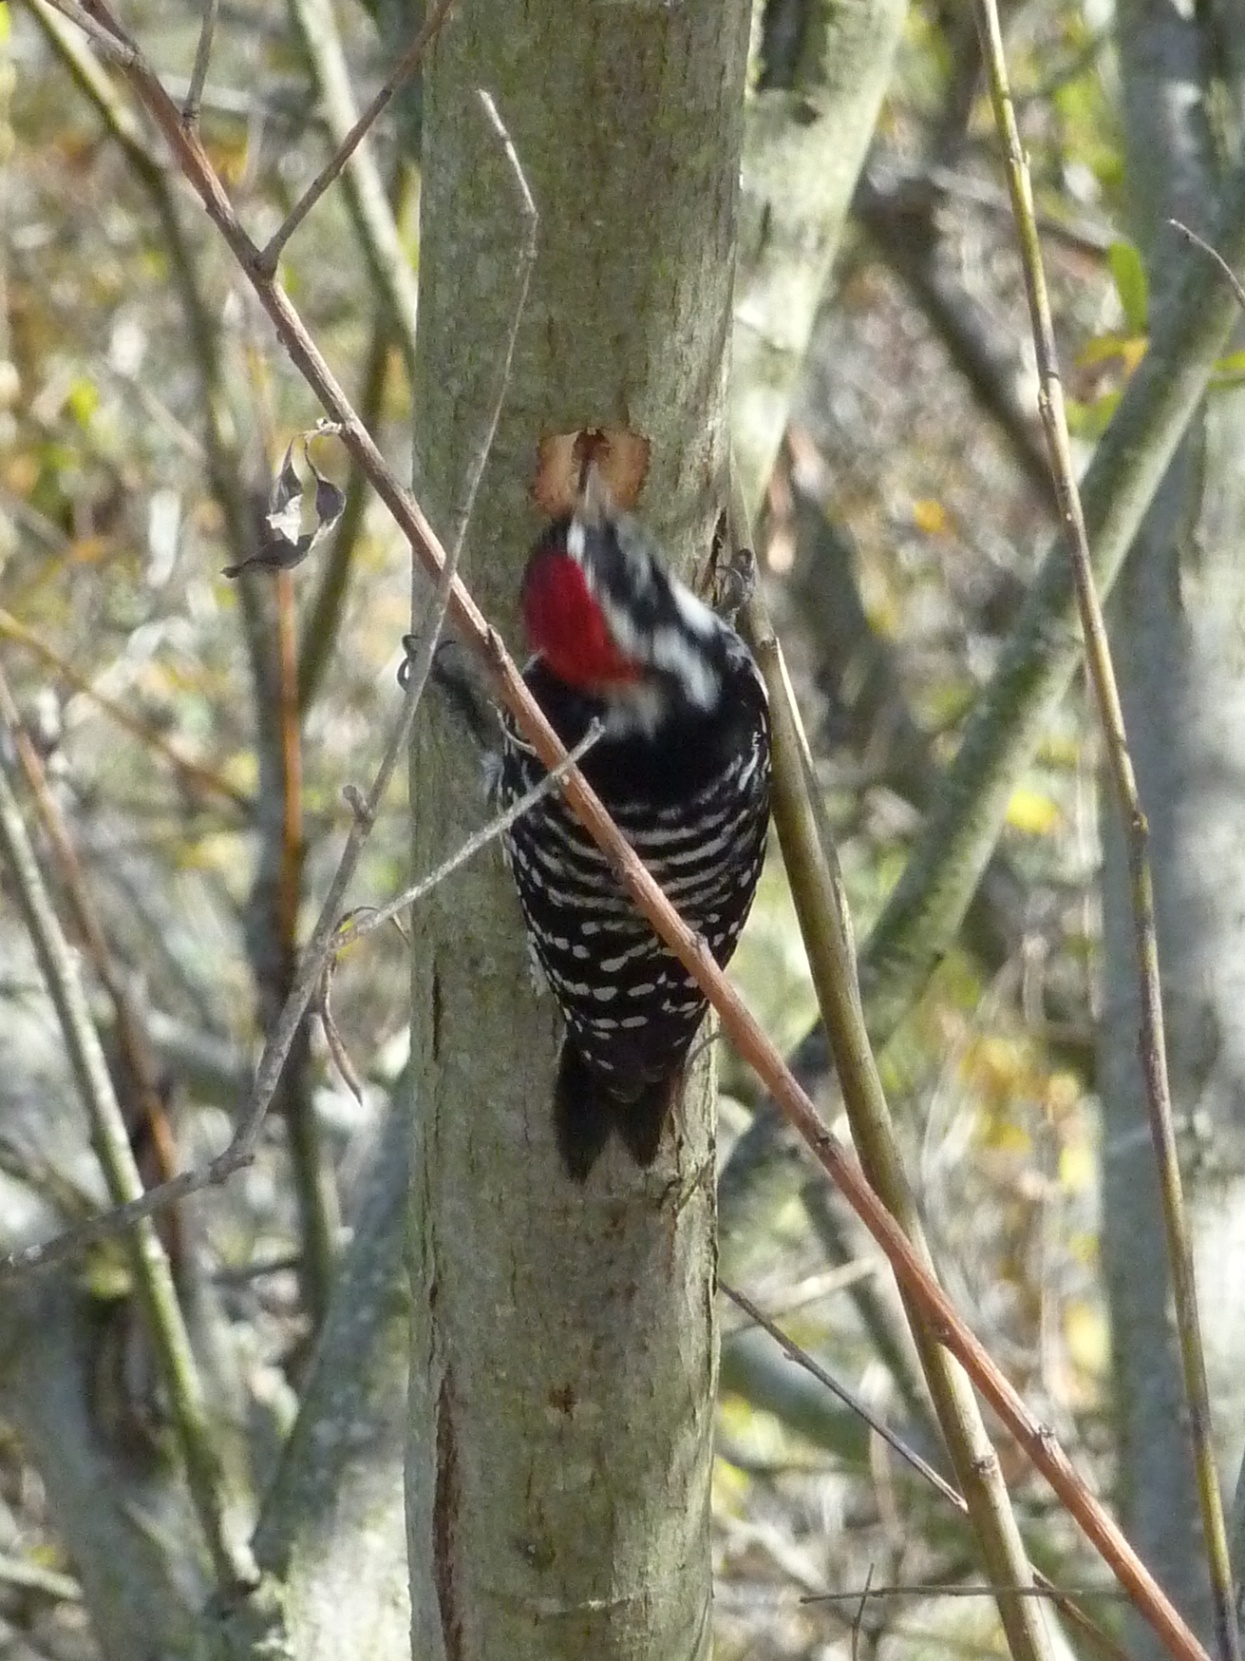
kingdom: Animalia
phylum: Chordata
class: Aves
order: Piciformes
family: Picidae
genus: Dryobates
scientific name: Dryobates nuttallii
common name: Nuttall's woodpecker
